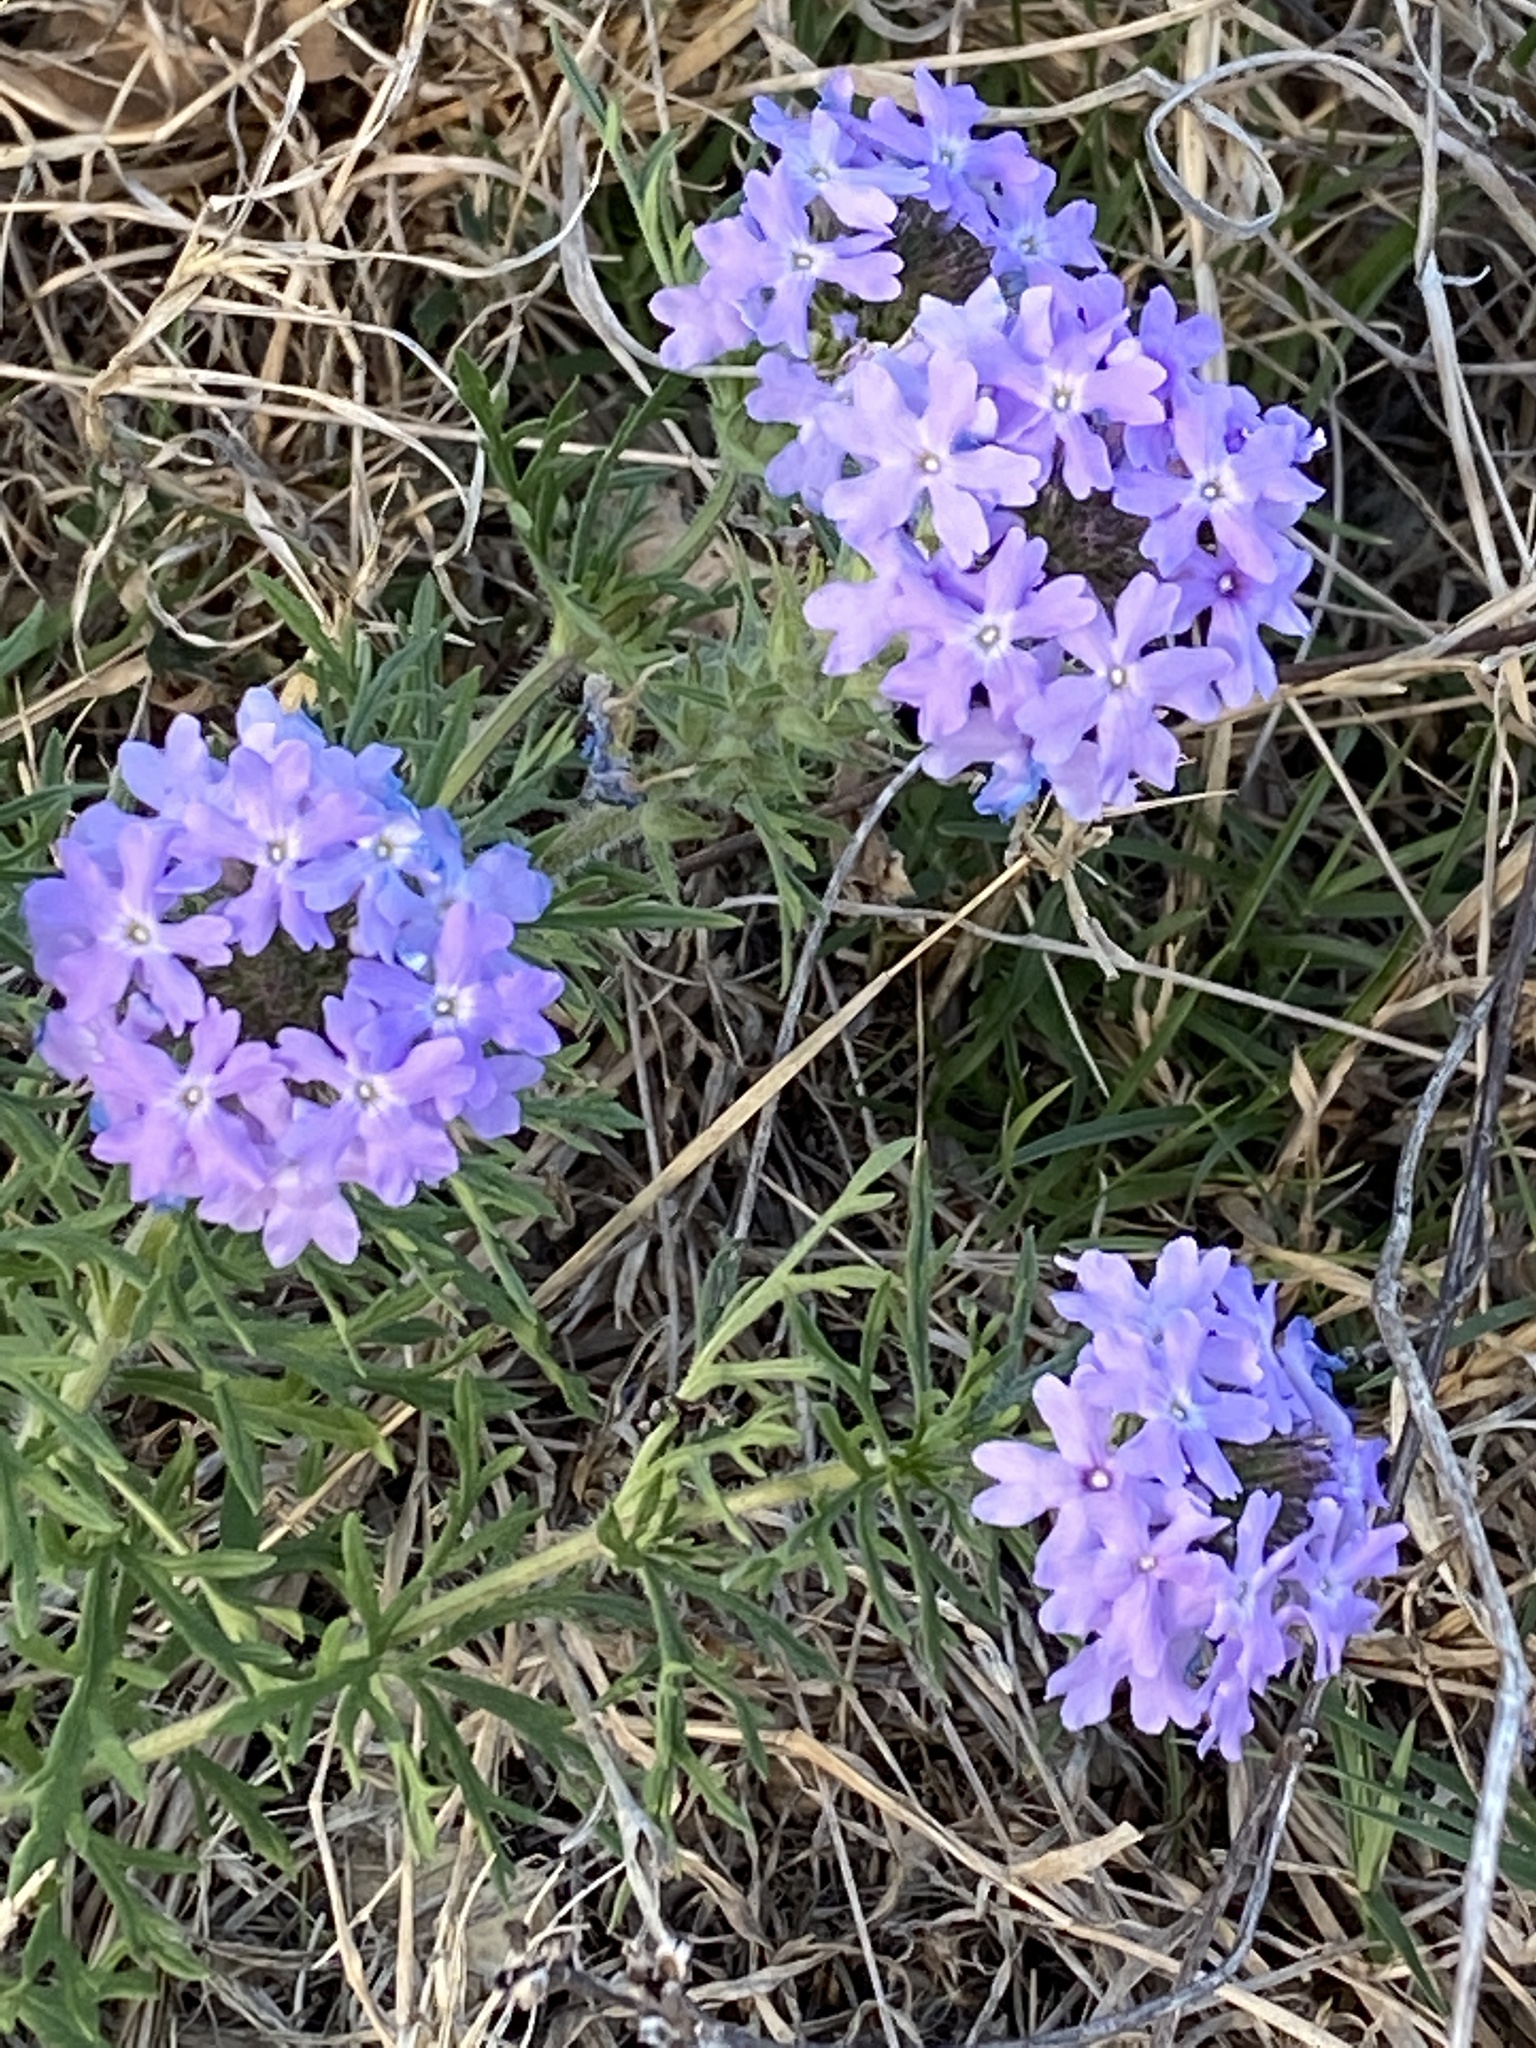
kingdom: Plantae
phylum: Tracheophyta
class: Magnoliopsida
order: Lamiales
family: Verbenaceae
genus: Verbena
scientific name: Verbena bipinnatifida
